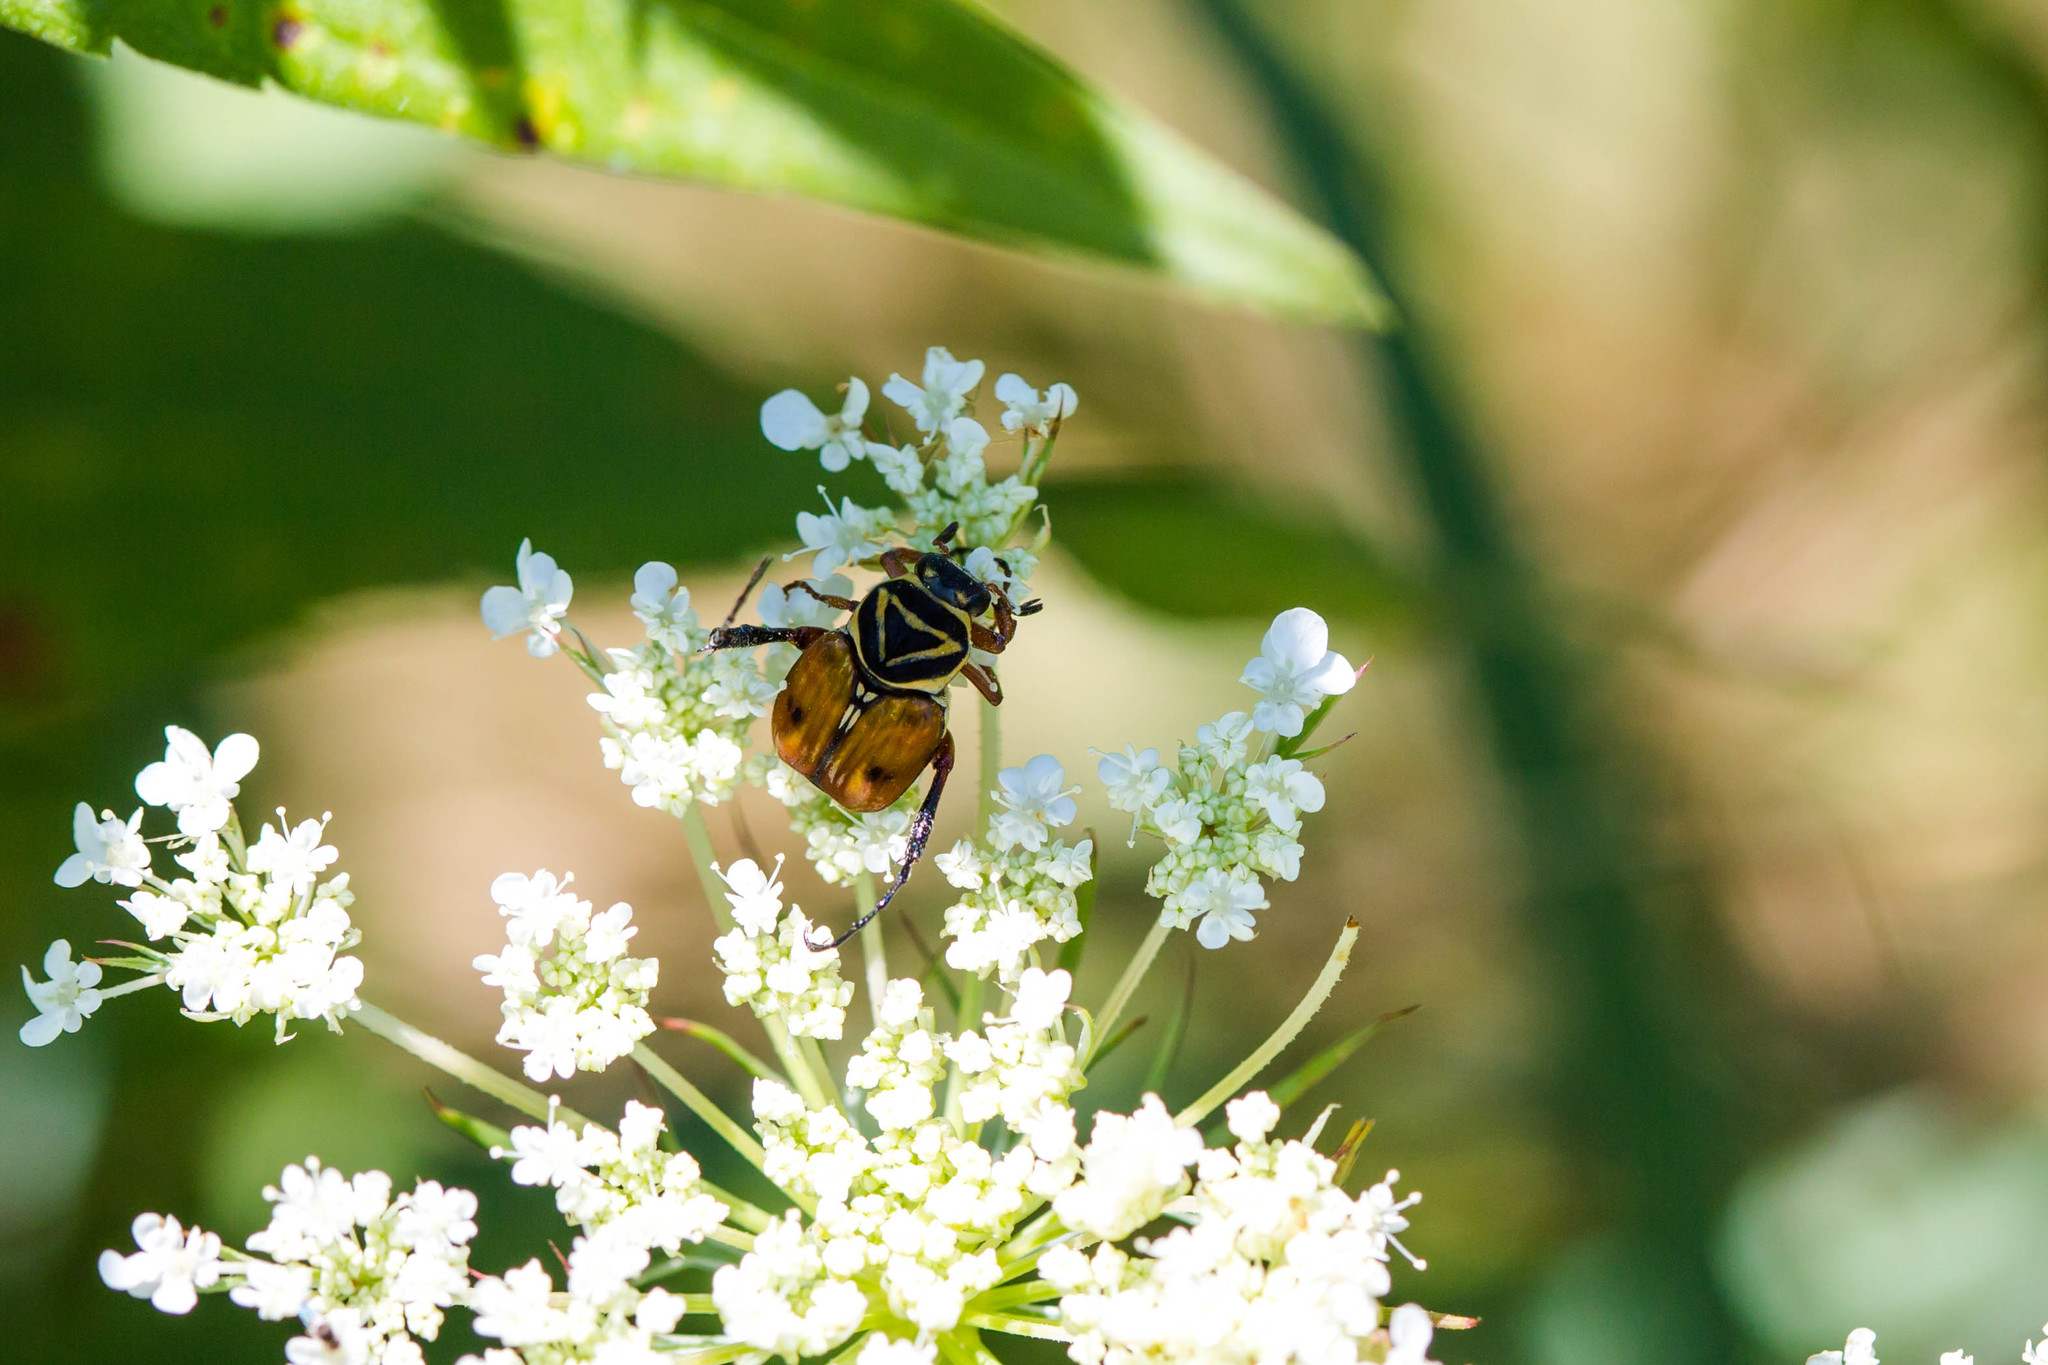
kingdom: Animalia
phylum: Arthropoda
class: Insecta
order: Coleoptera
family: Scarabaeidae
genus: Trigonopeltastes
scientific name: Trigonopeltastes delta
